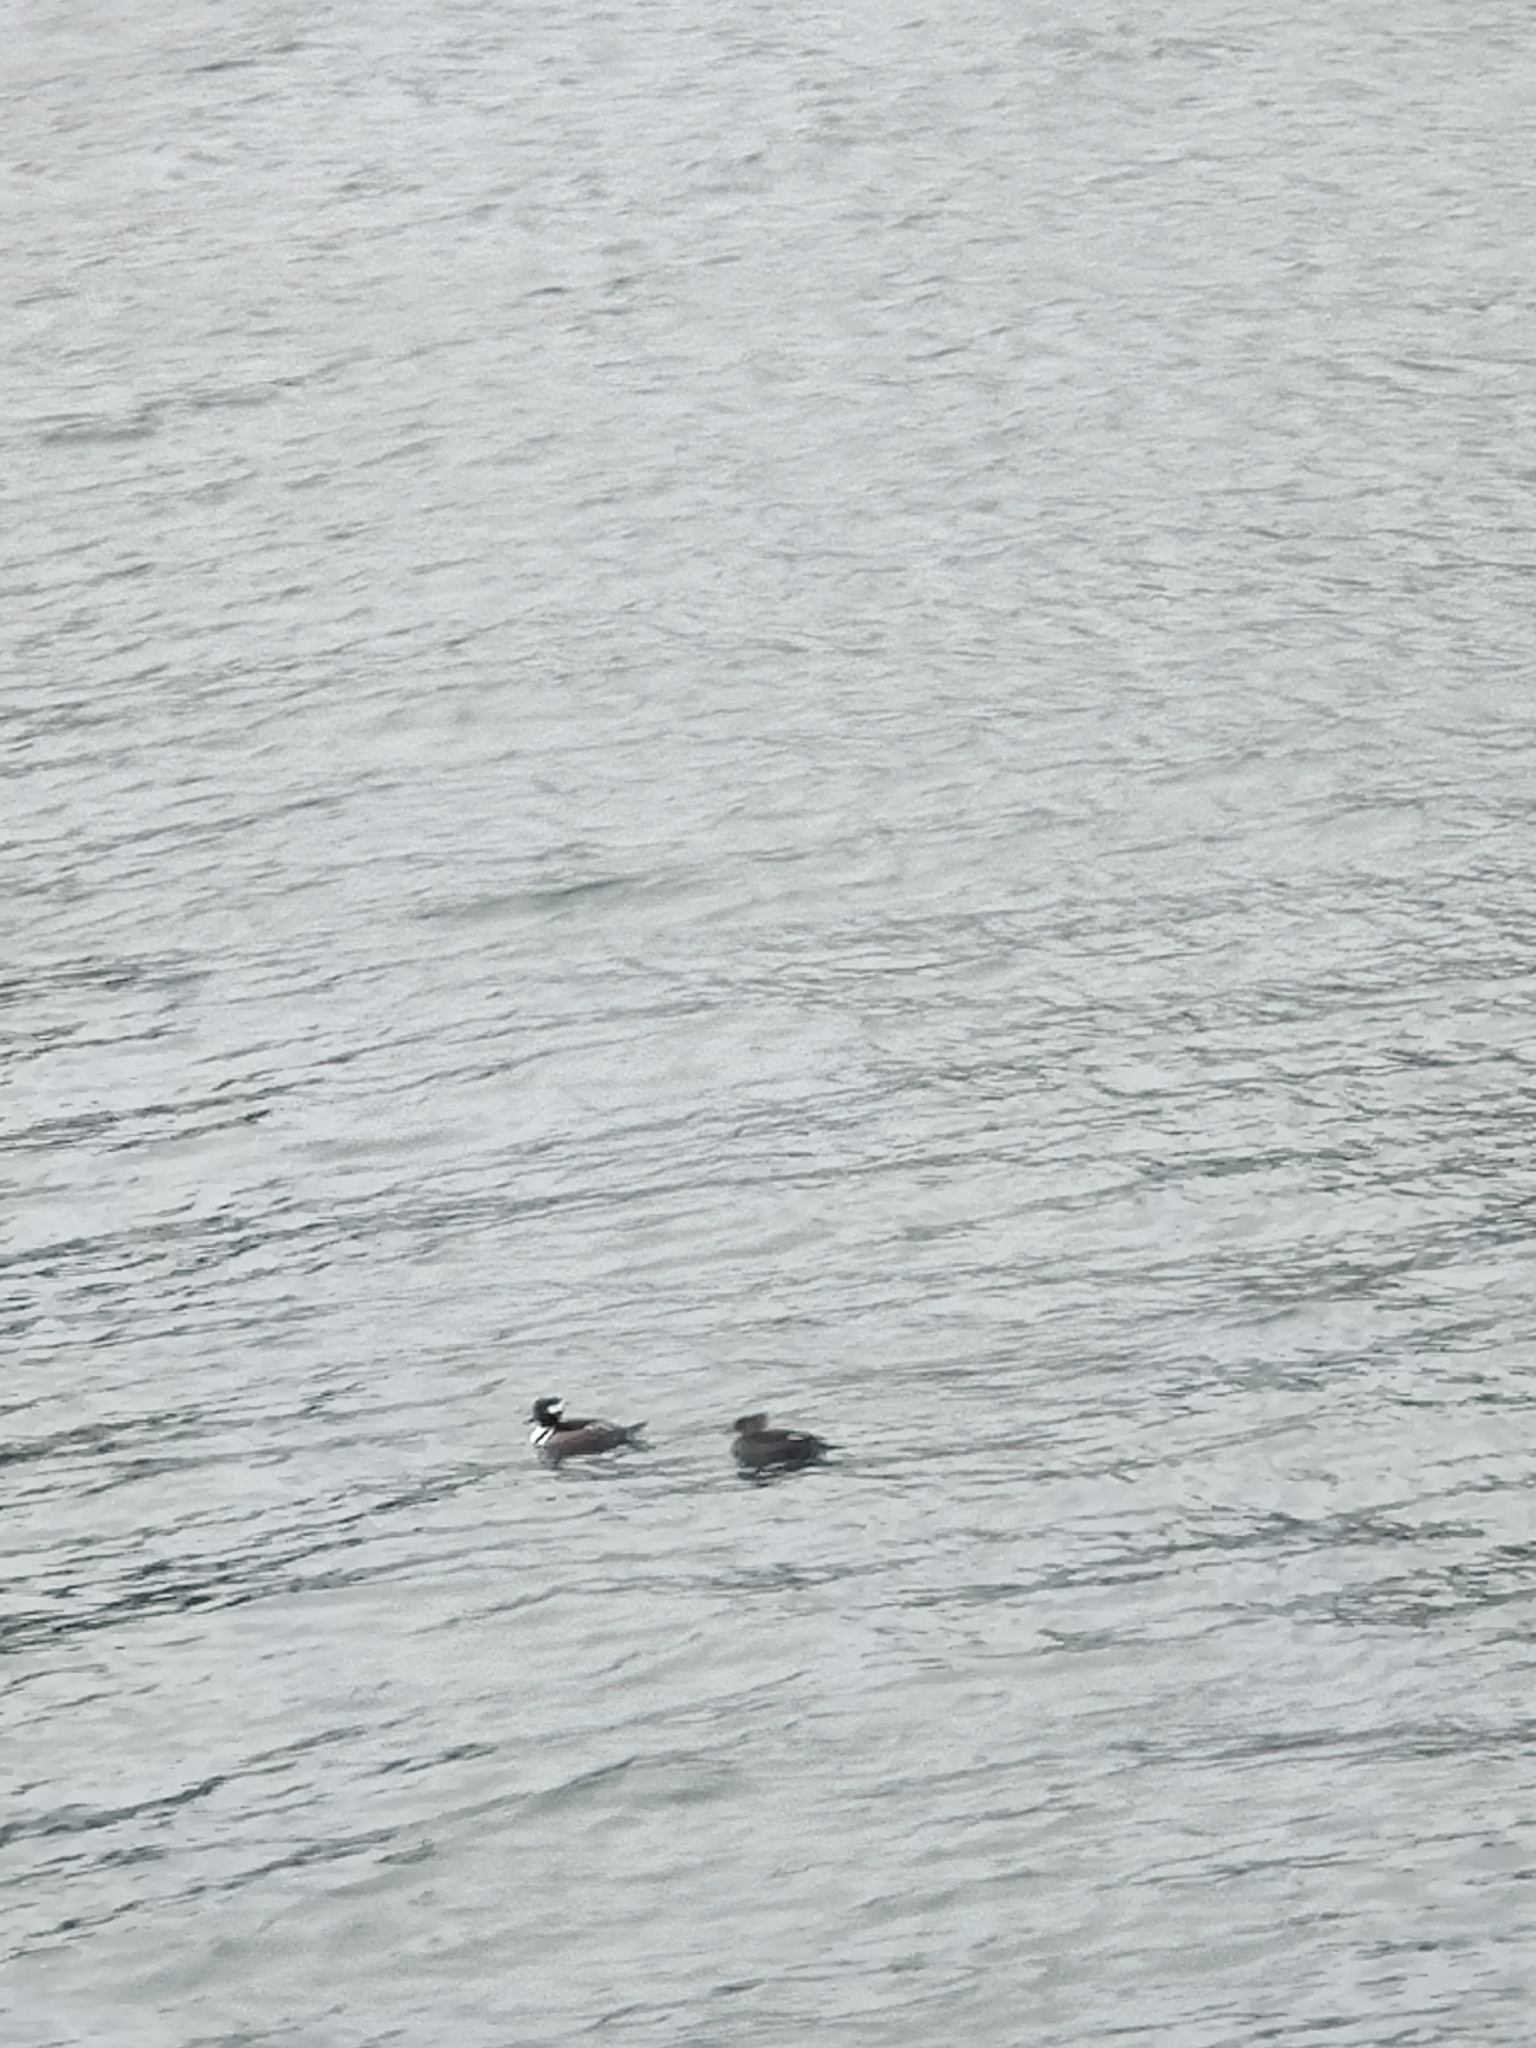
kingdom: Animalia
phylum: Chordata
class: Aves
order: Anseriformes
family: Anatidae
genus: Lophodytes
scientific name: Lophodytes cucullatus
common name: Hooded merganser
